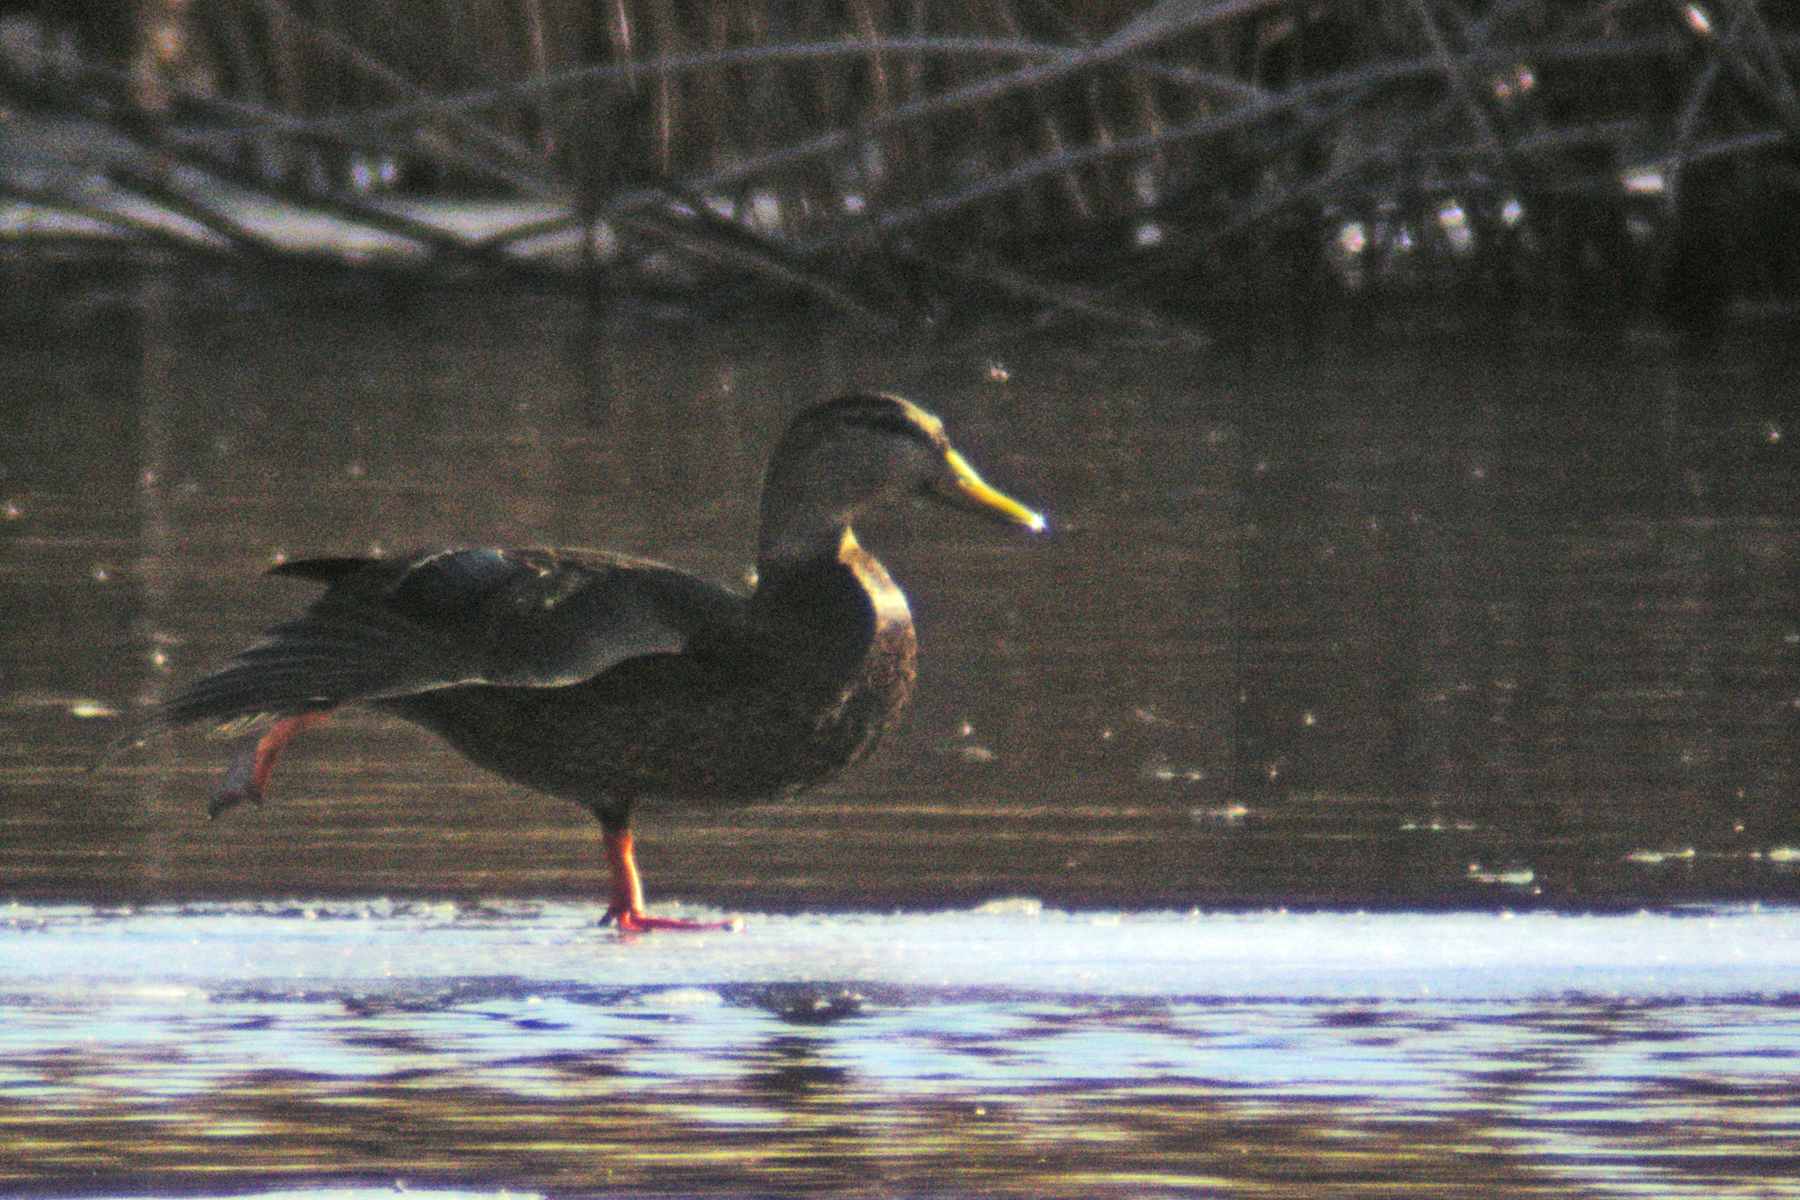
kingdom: Animalia
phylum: Chordata
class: Aves
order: Anseriformes
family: Anatidae
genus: Anas
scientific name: Anas rubripes
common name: American black duck
